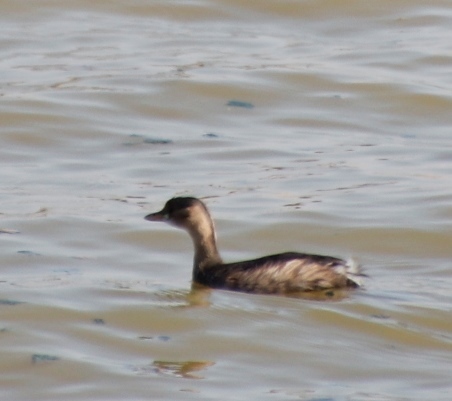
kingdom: Animalia
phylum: Chordata
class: Aves
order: Podicipediformes
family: Podicipedidae
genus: Tachybaptus
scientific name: Tachybaptus ruficollis
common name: Little grebe
